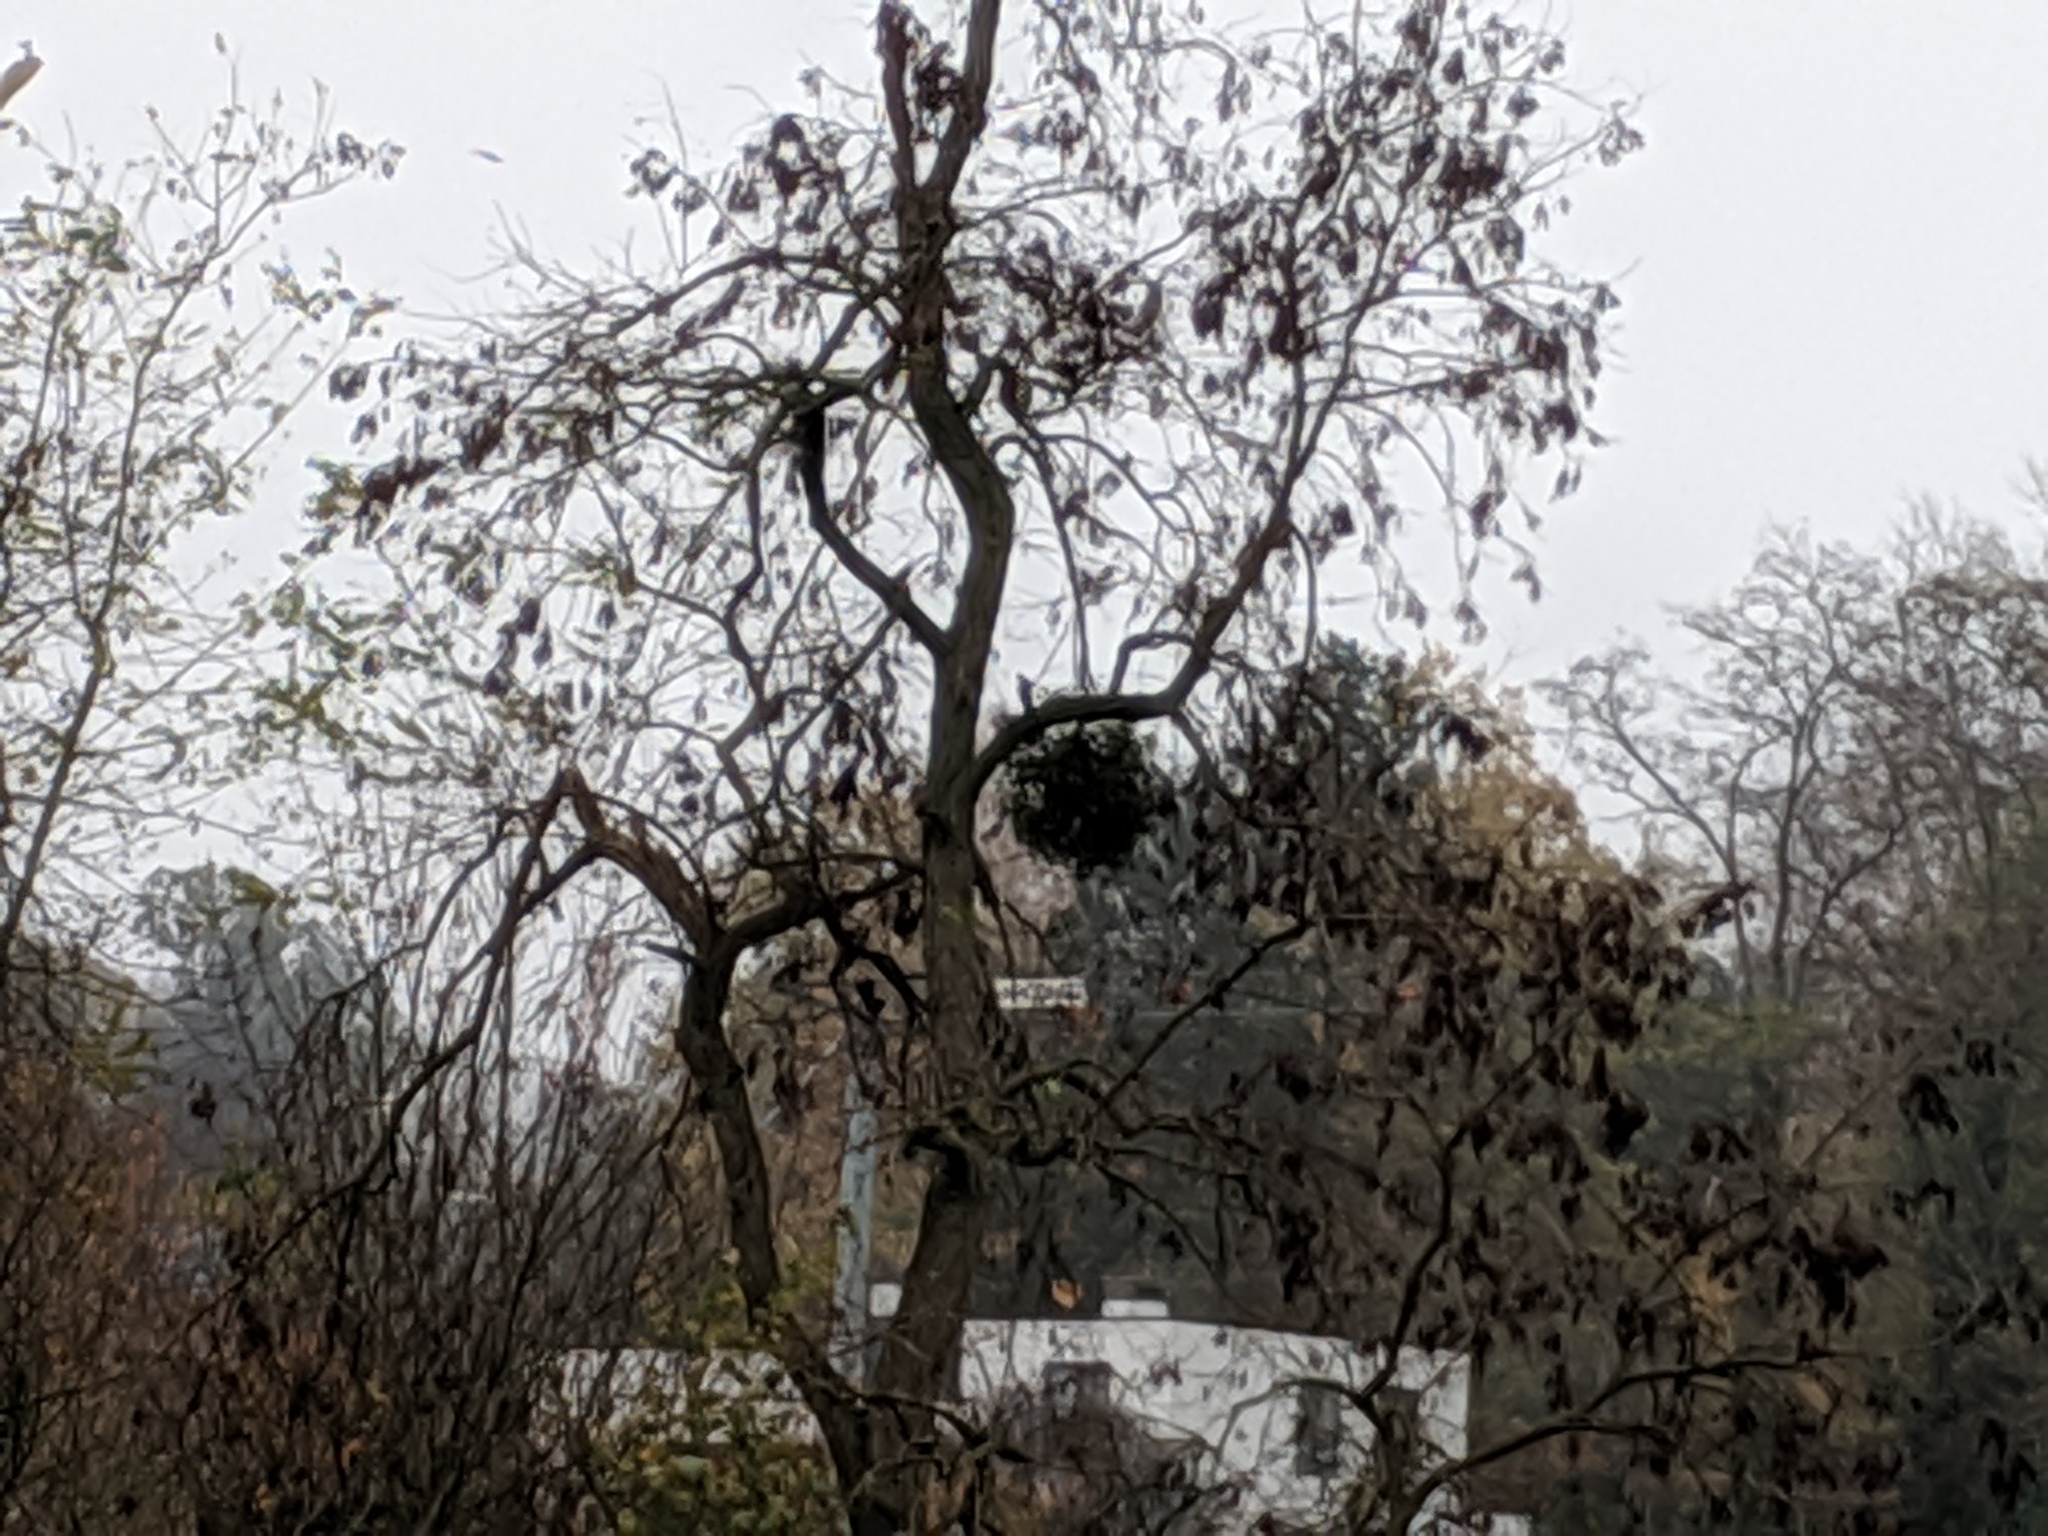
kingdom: Plantae
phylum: Tracheophyta
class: Magnoliopsida
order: Santalales
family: Viscaceae
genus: Viscum
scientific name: Viscum album
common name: Mistletoe
